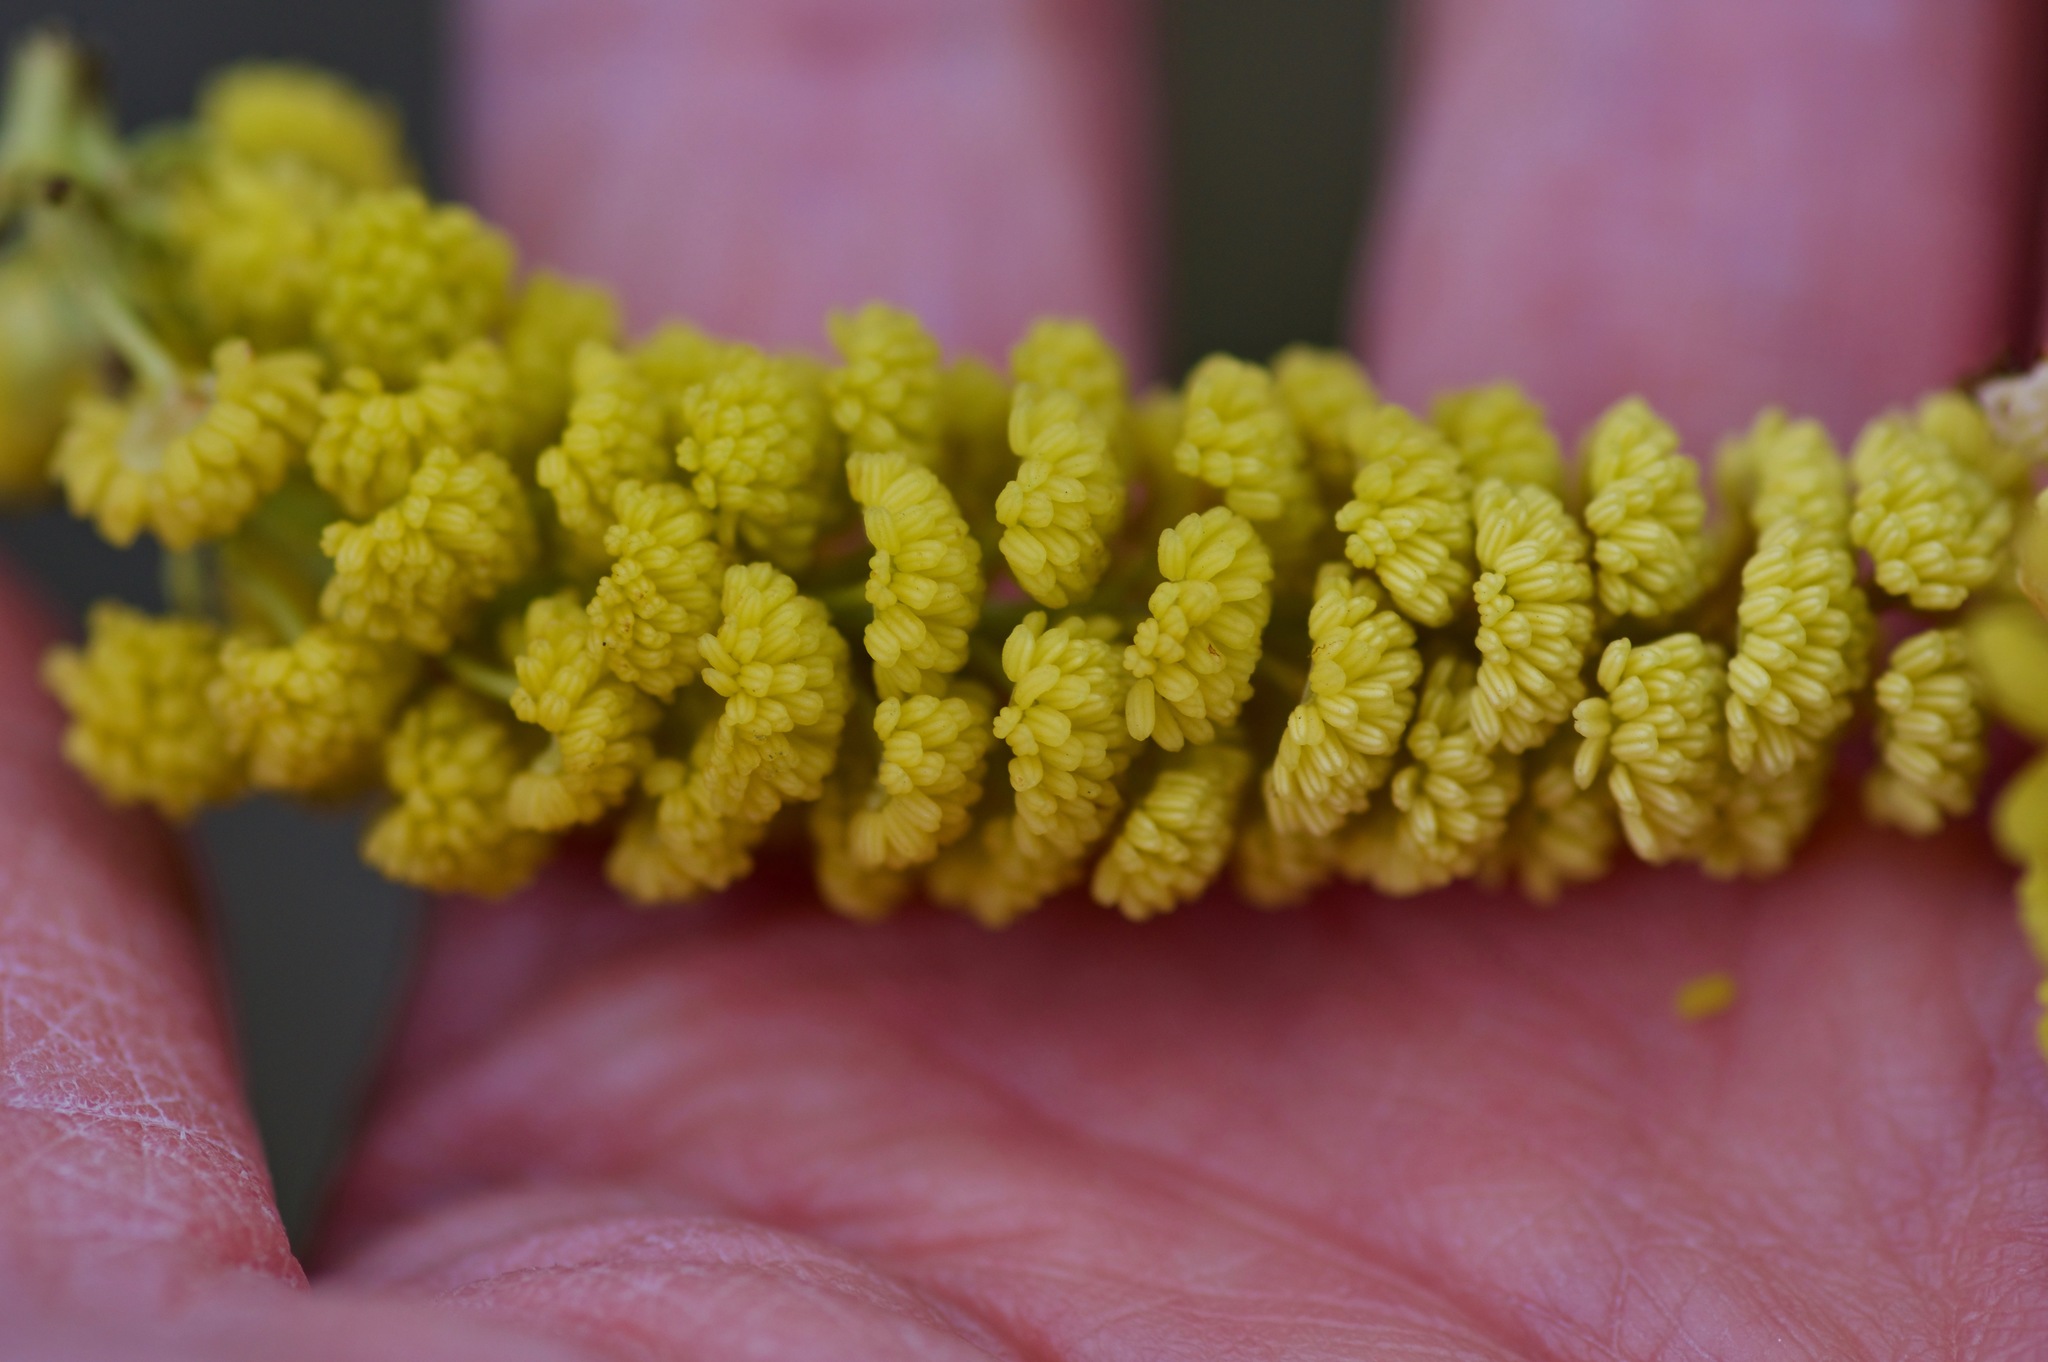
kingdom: Plantae
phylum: Tracheophyta
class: Magnoliopsida
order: Malpighiales
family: Salicaceae
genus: Populus
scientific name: Populus deltoides
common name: Eastern cottonwood
